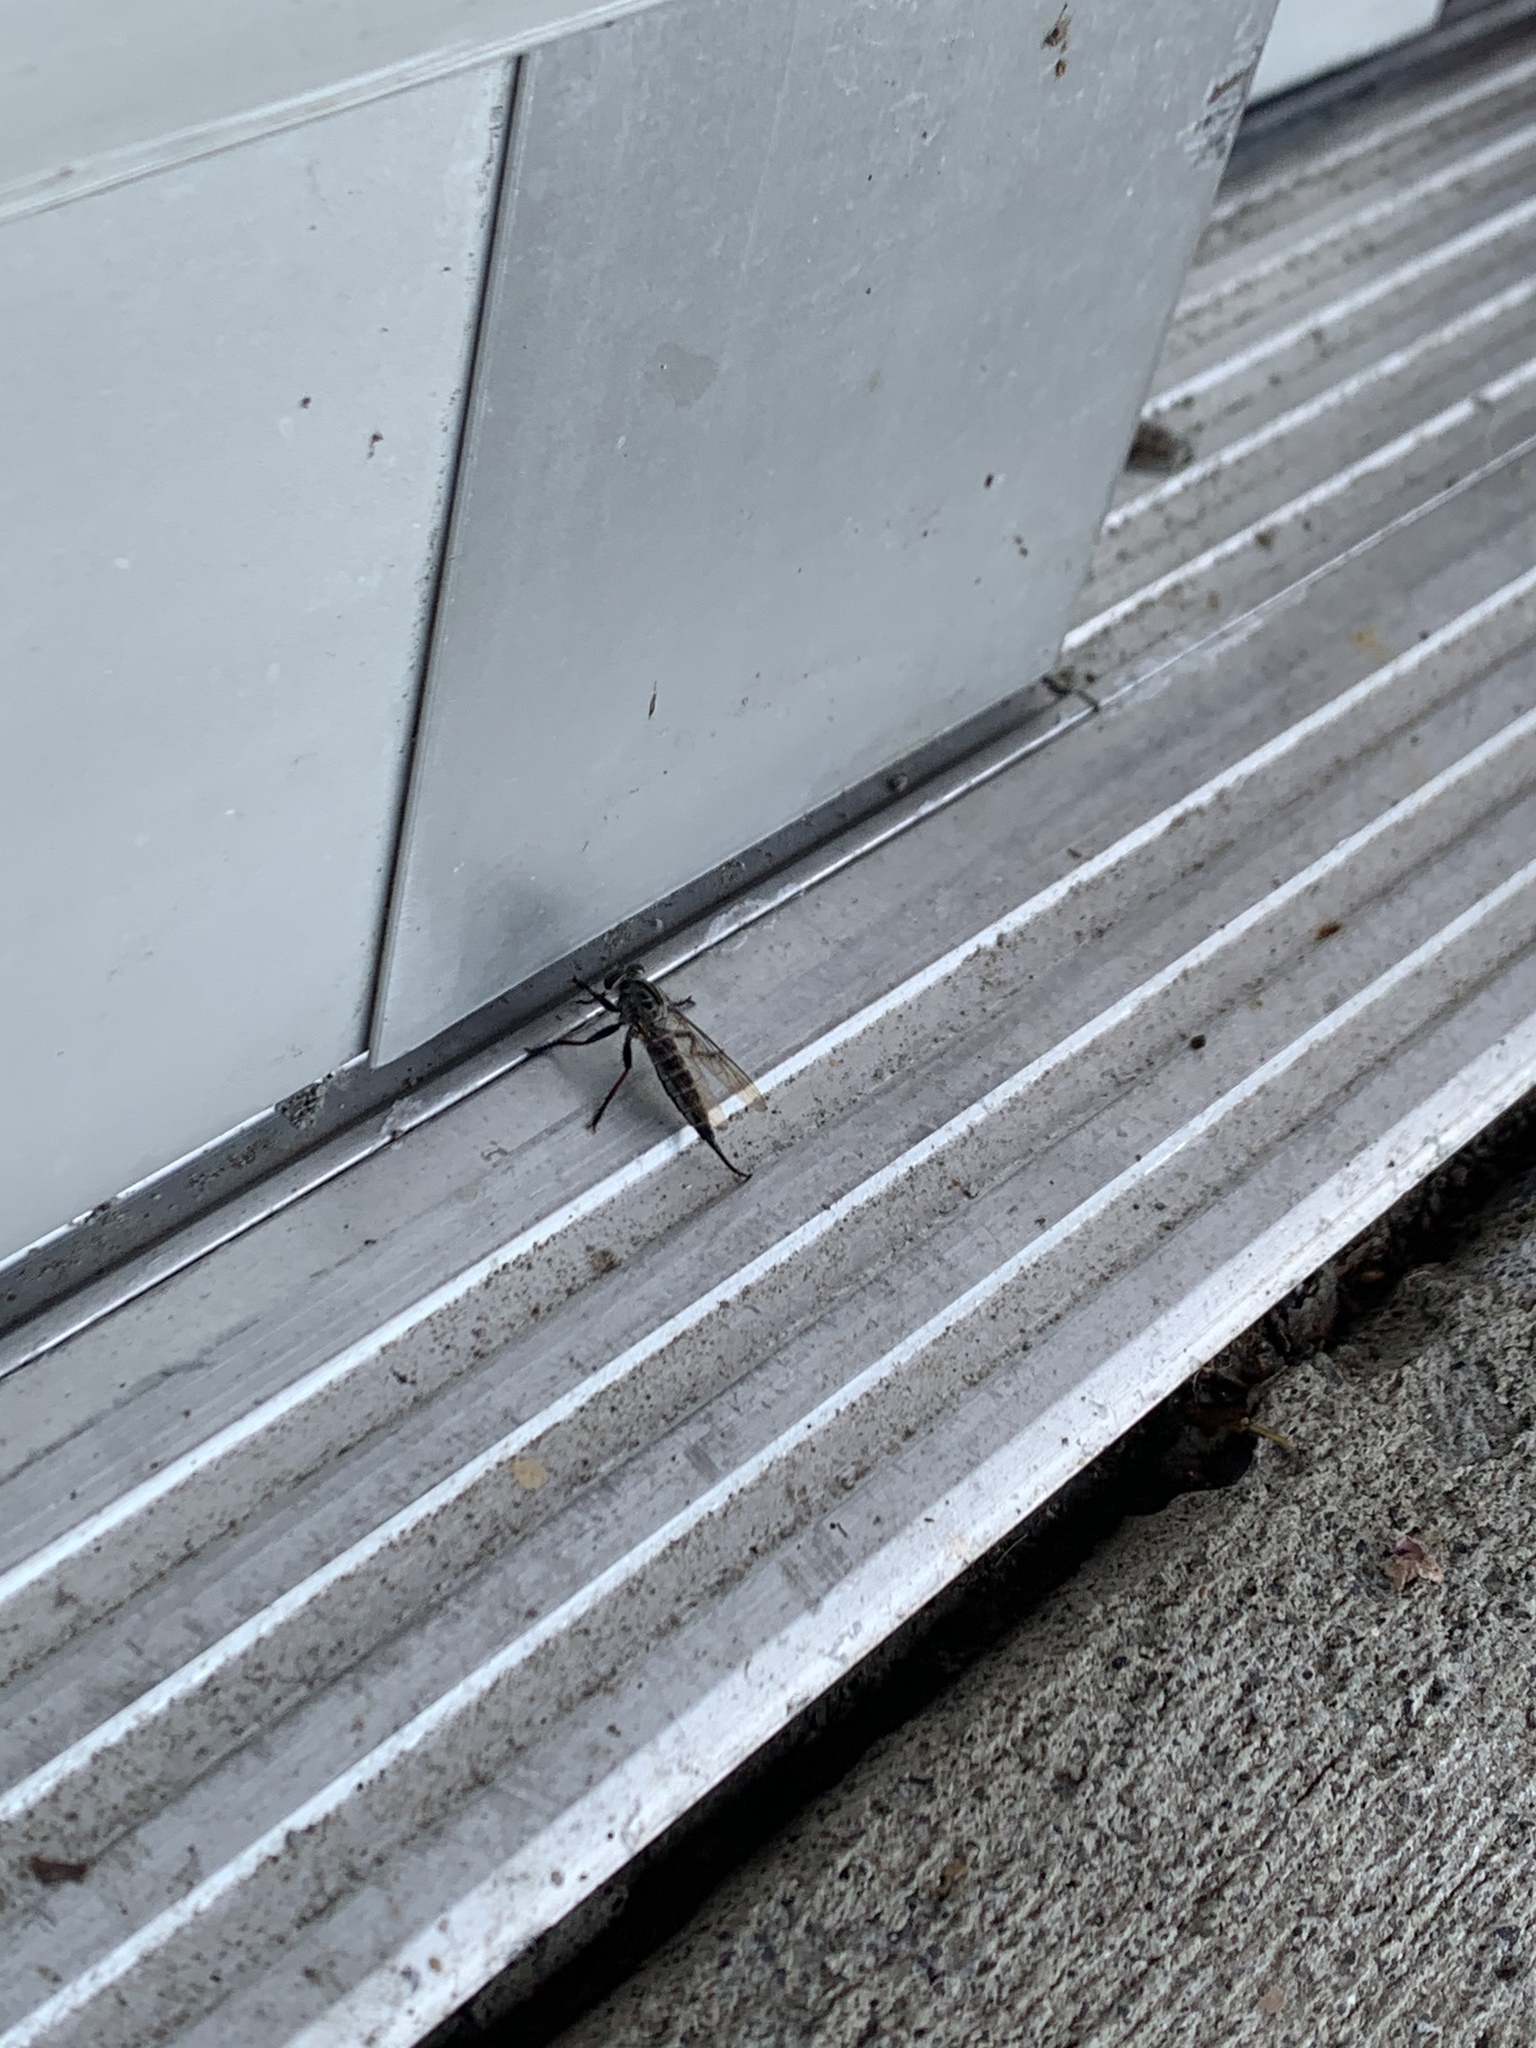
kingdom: Animalia
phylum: Arthropoda
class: Insecta
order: Diptera
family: Asilidae
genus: Efferia
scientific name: Efferia aestuans
